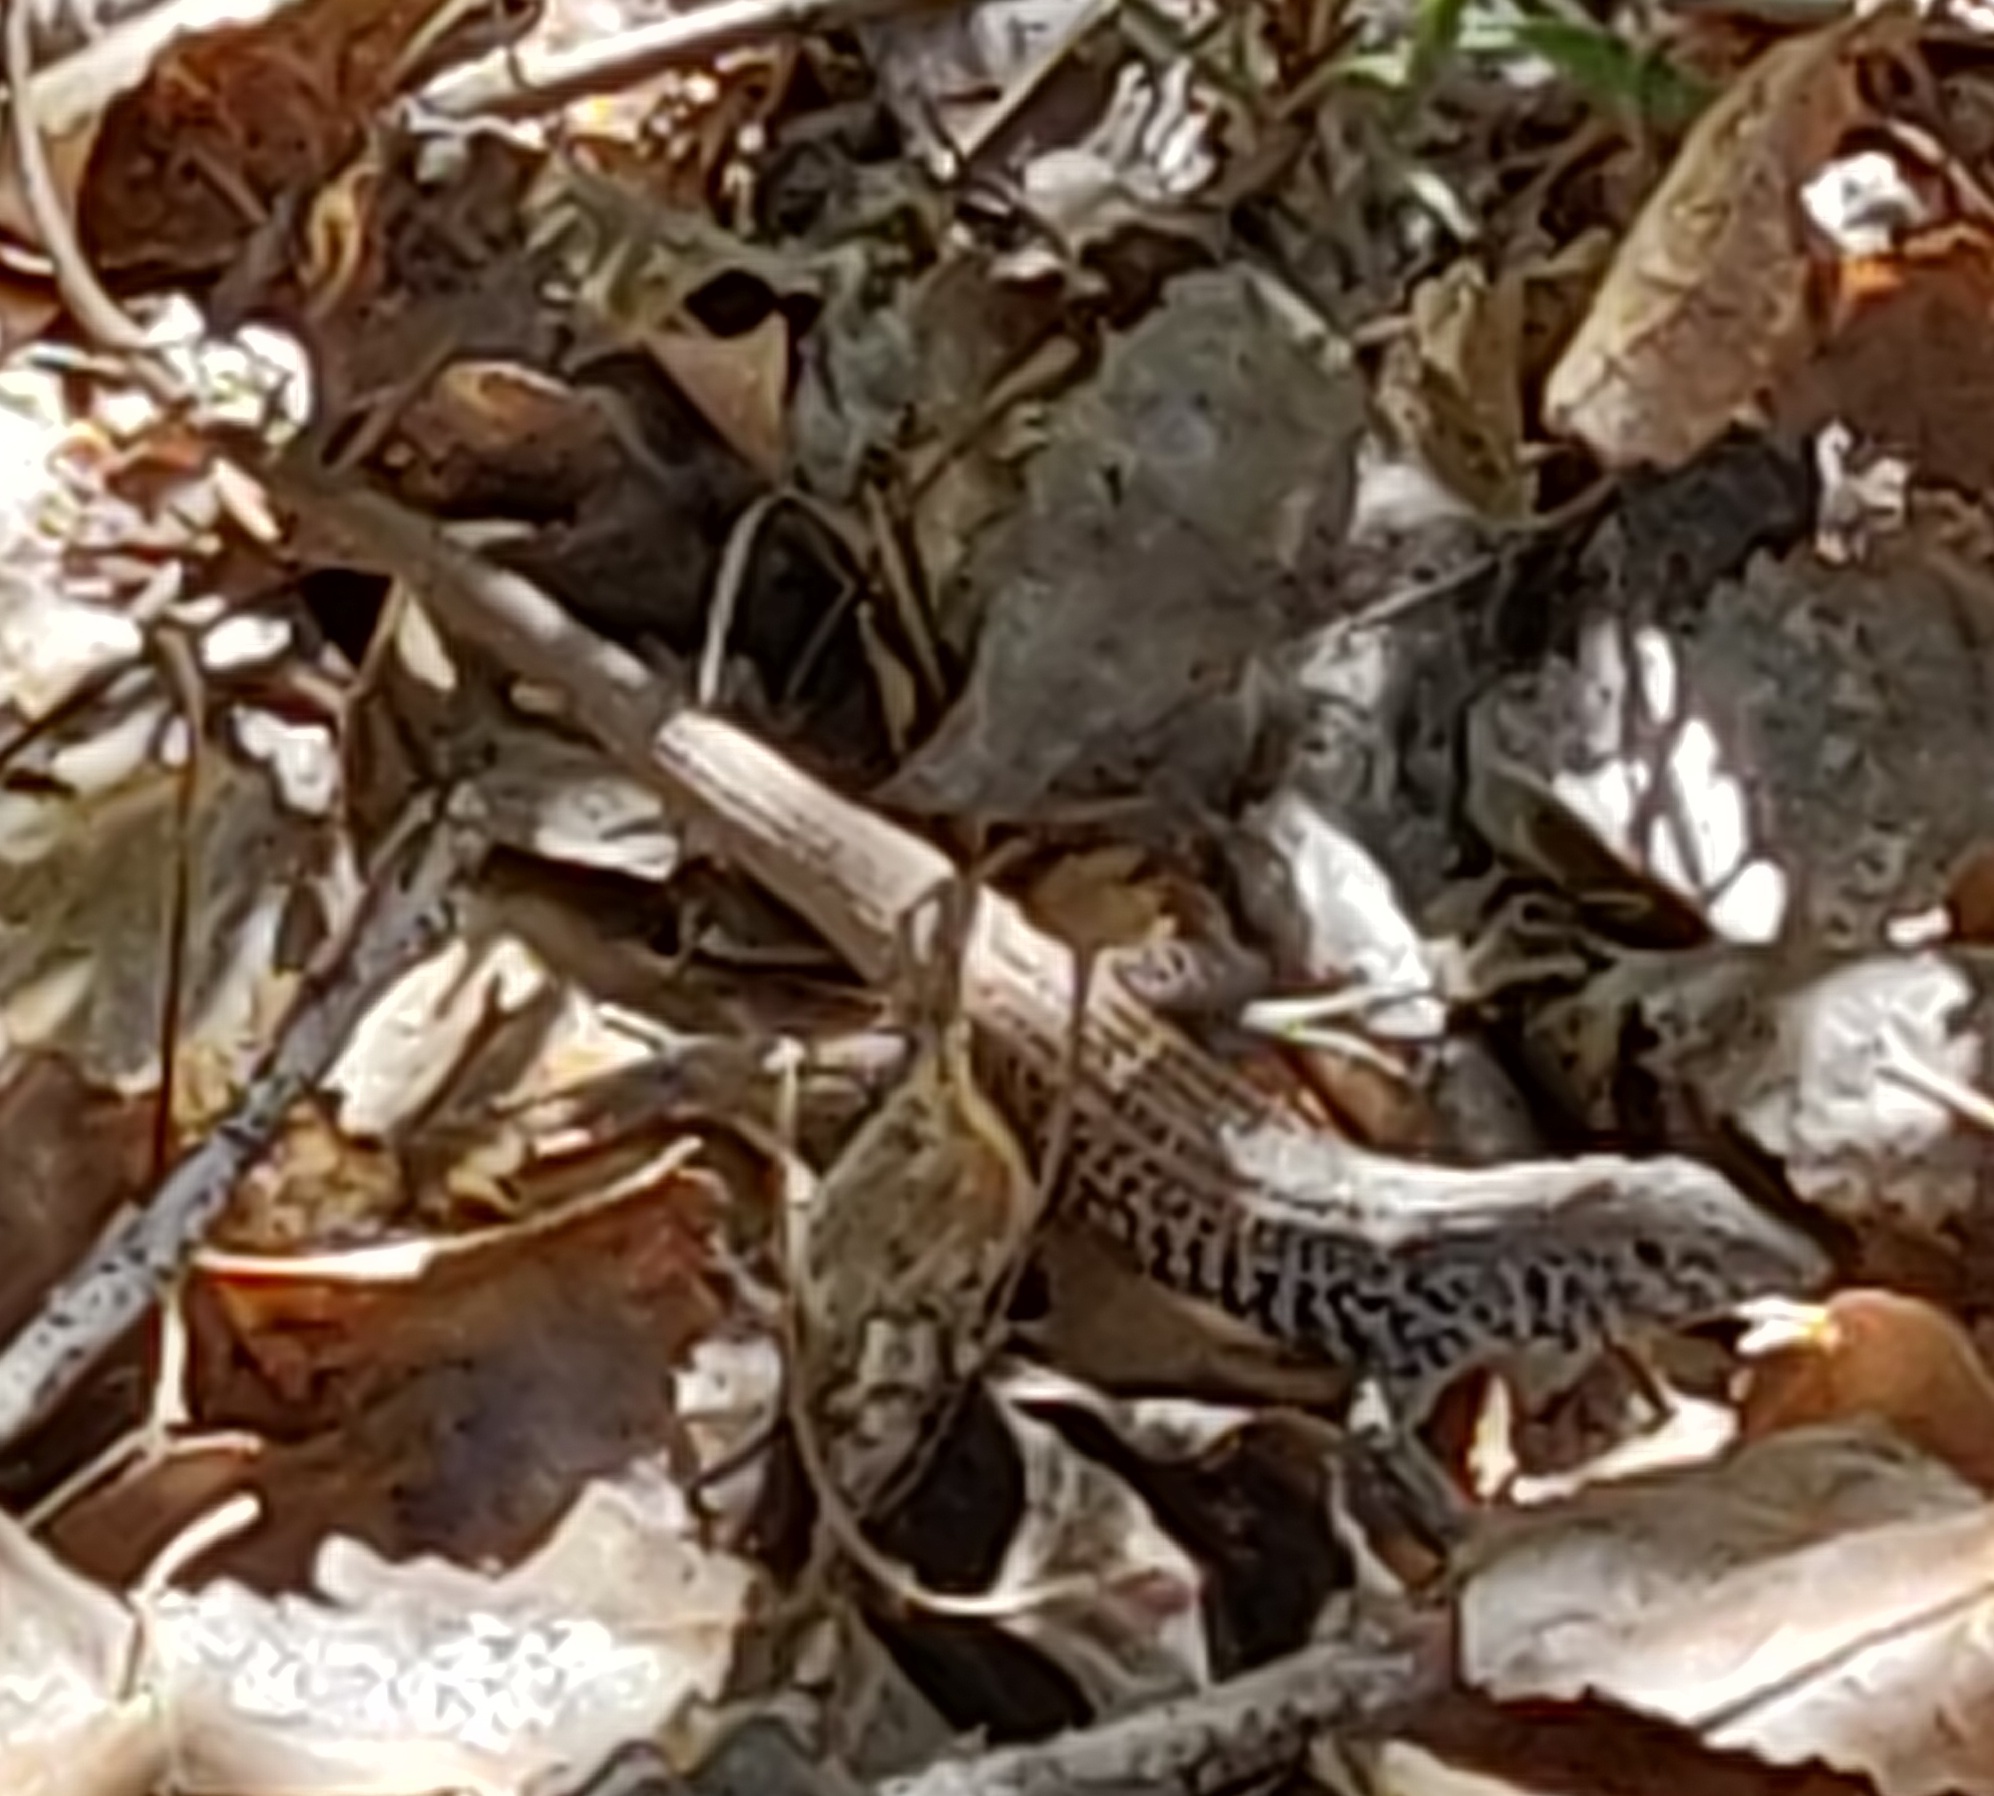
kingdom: Animalia
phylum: Chordata
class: Squamata
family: Teiidae
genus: Aspidoscelis
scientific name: Aspidoscelis tigris
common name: Tiger whiptail
